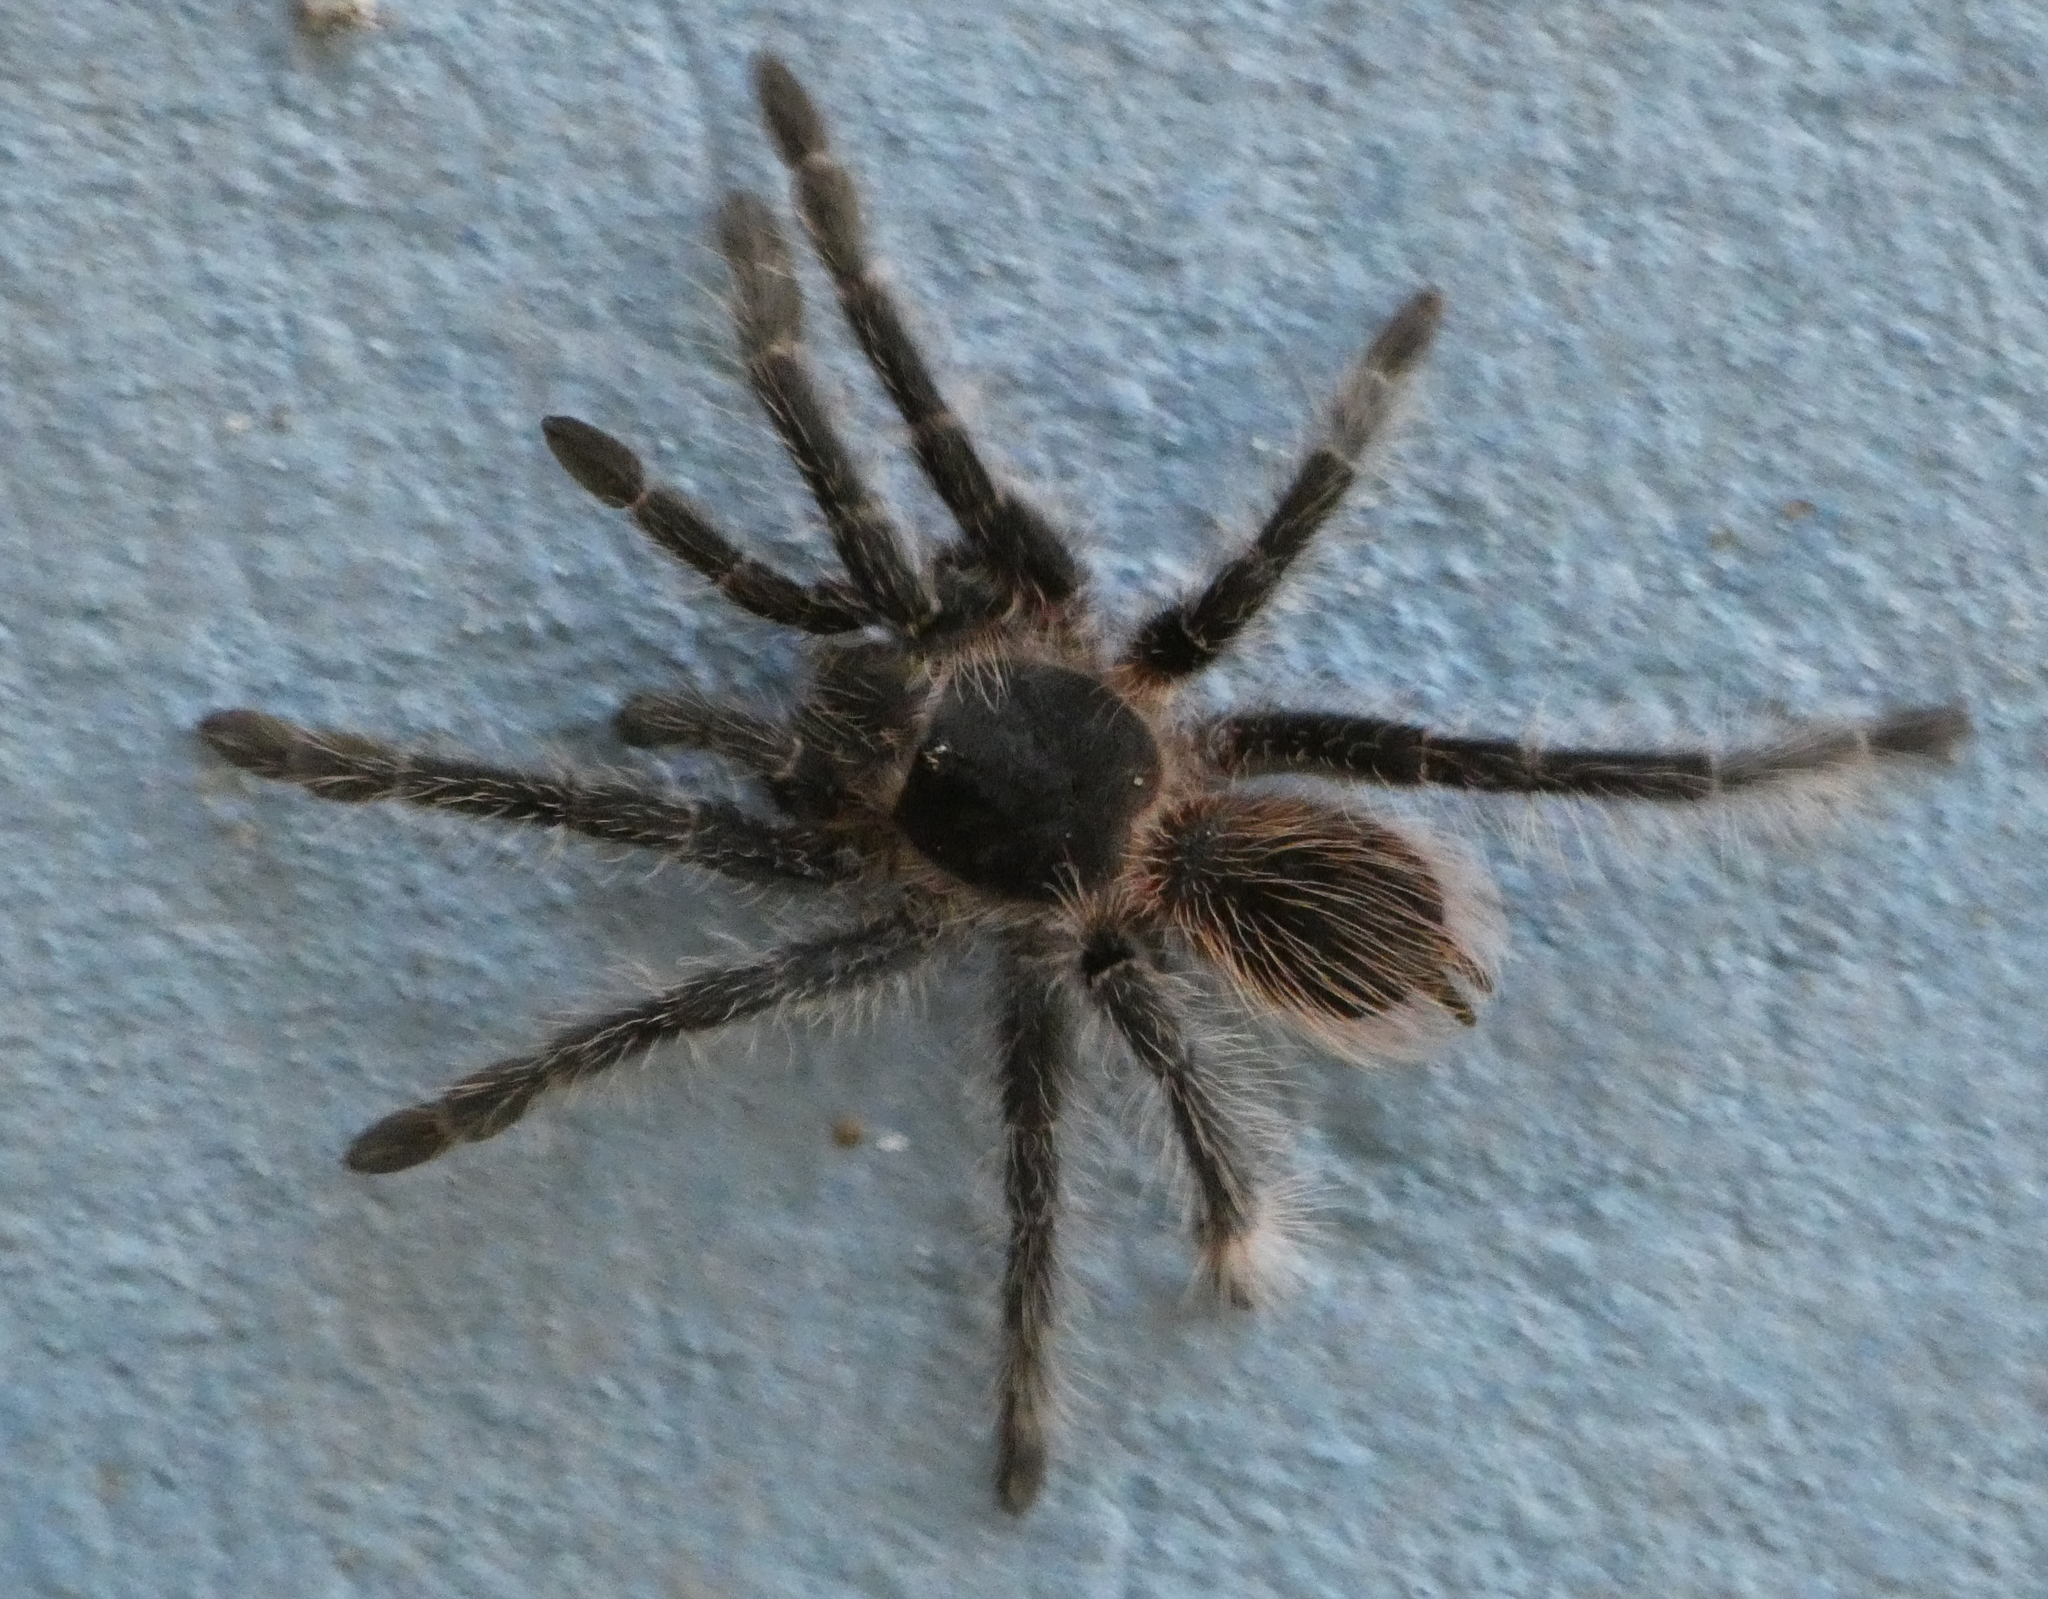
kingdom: Animalia
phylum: Arthropoda
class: Arachnida
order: Araneae
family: Theraphosidae
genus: Lasiodora
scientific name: Lasiodora parahybana
